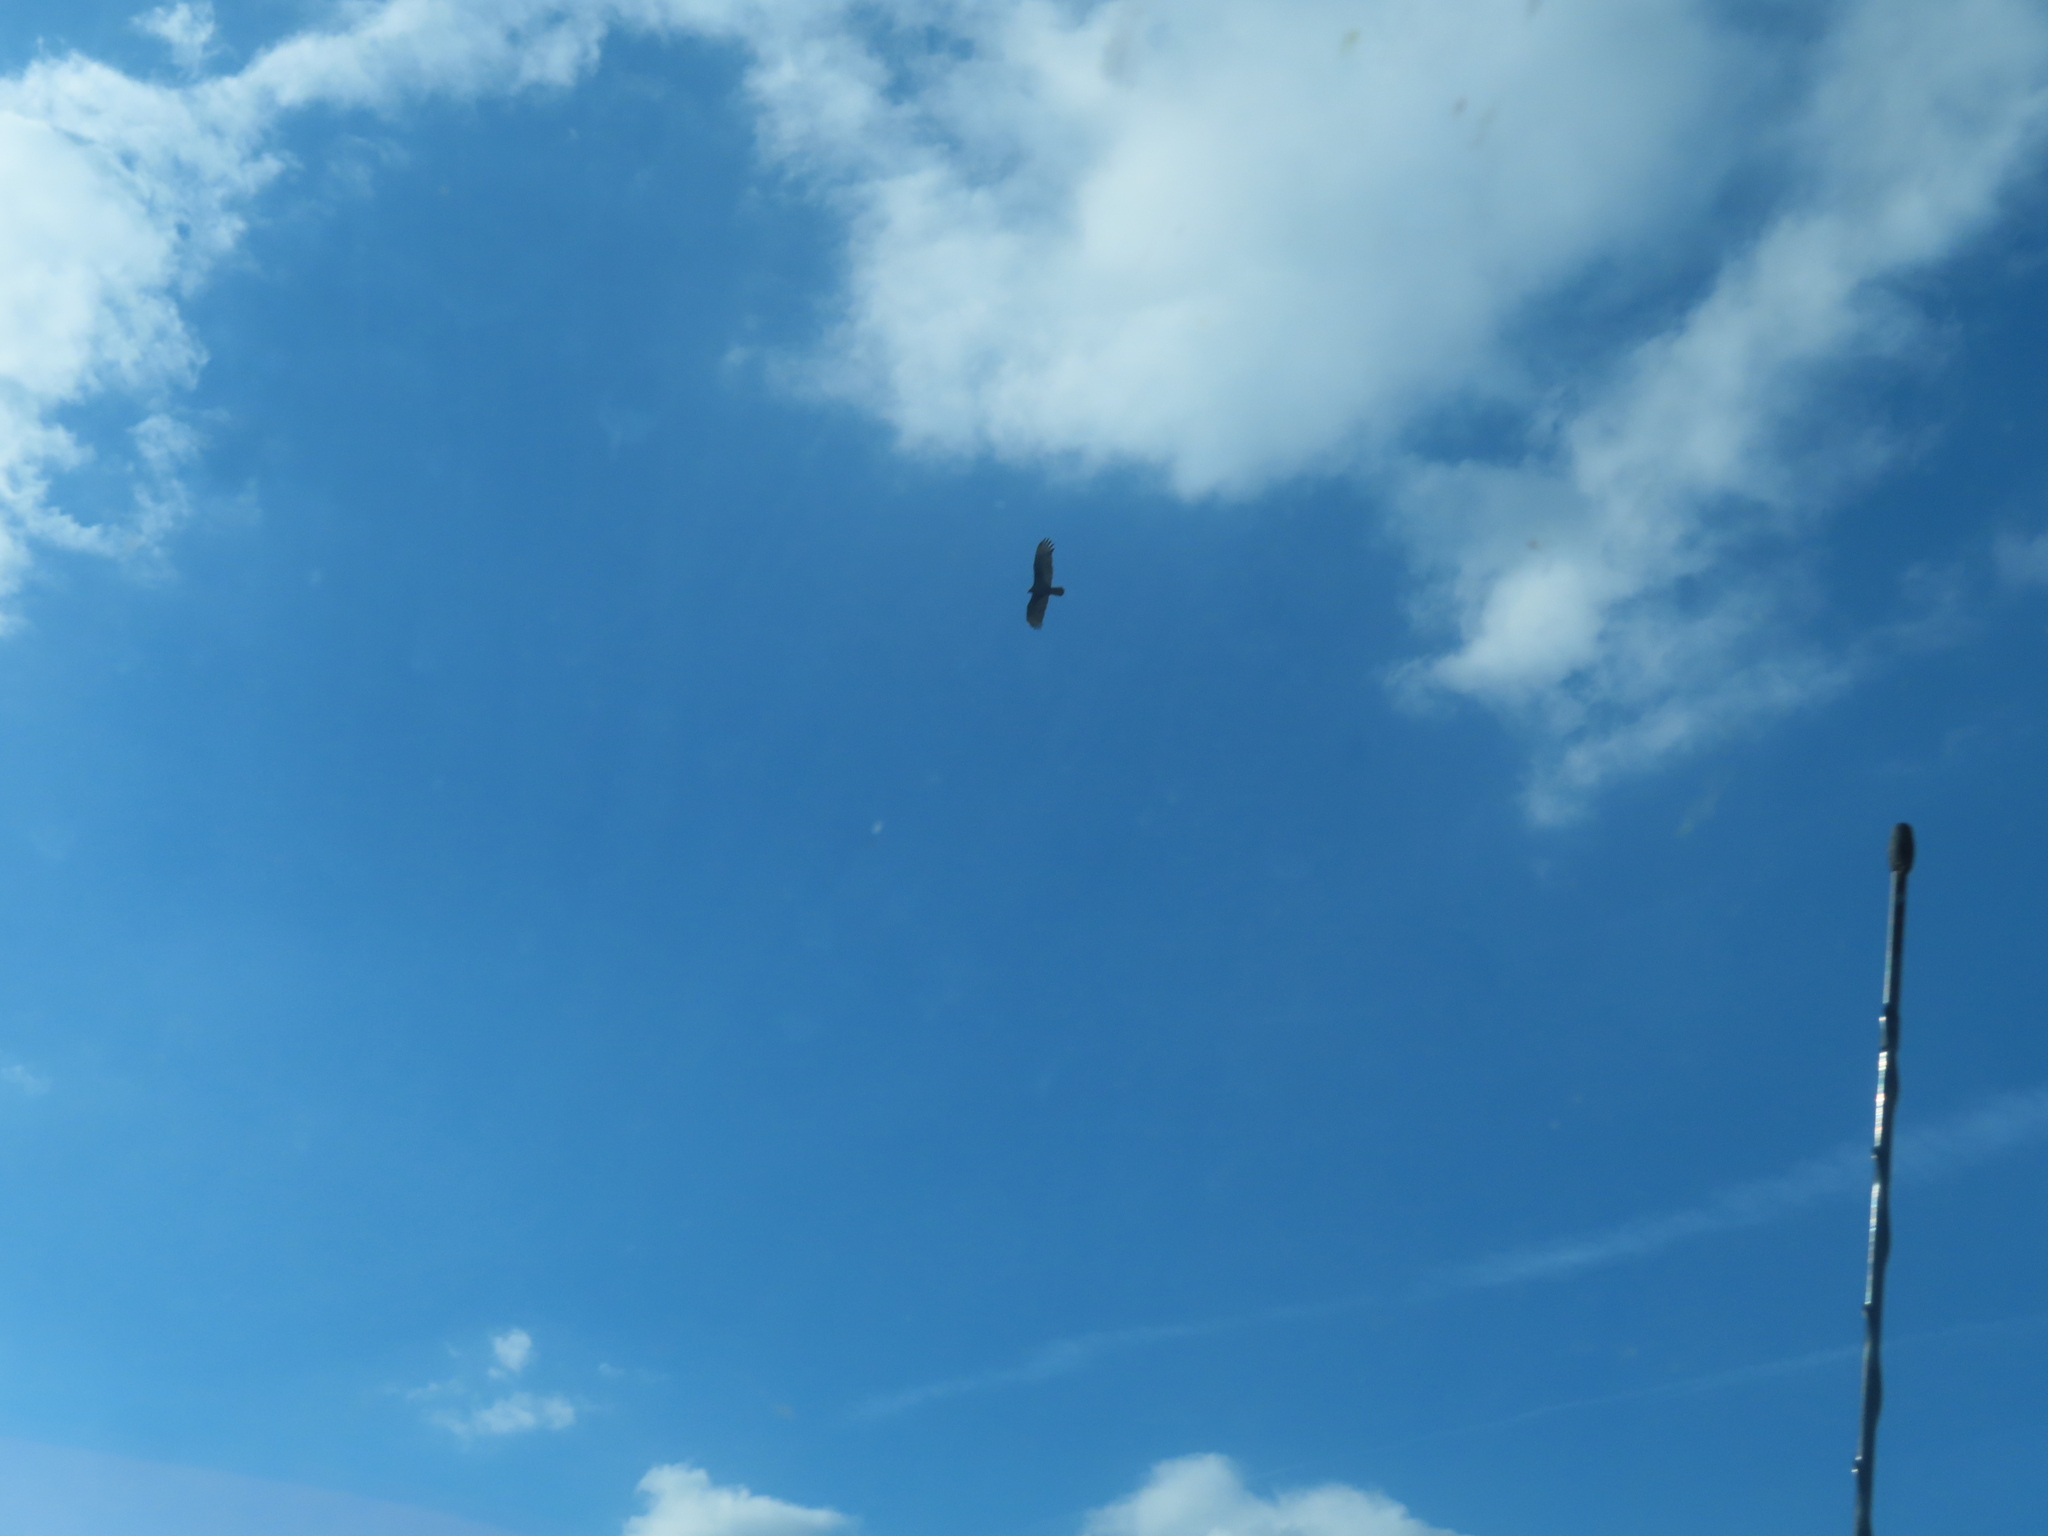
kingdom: Animalia
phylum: Chordata
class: Aves
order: Accipitriformes
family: Cathartidae
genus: Cathartes
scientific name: Cathartes aura
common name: Turkey vulture
